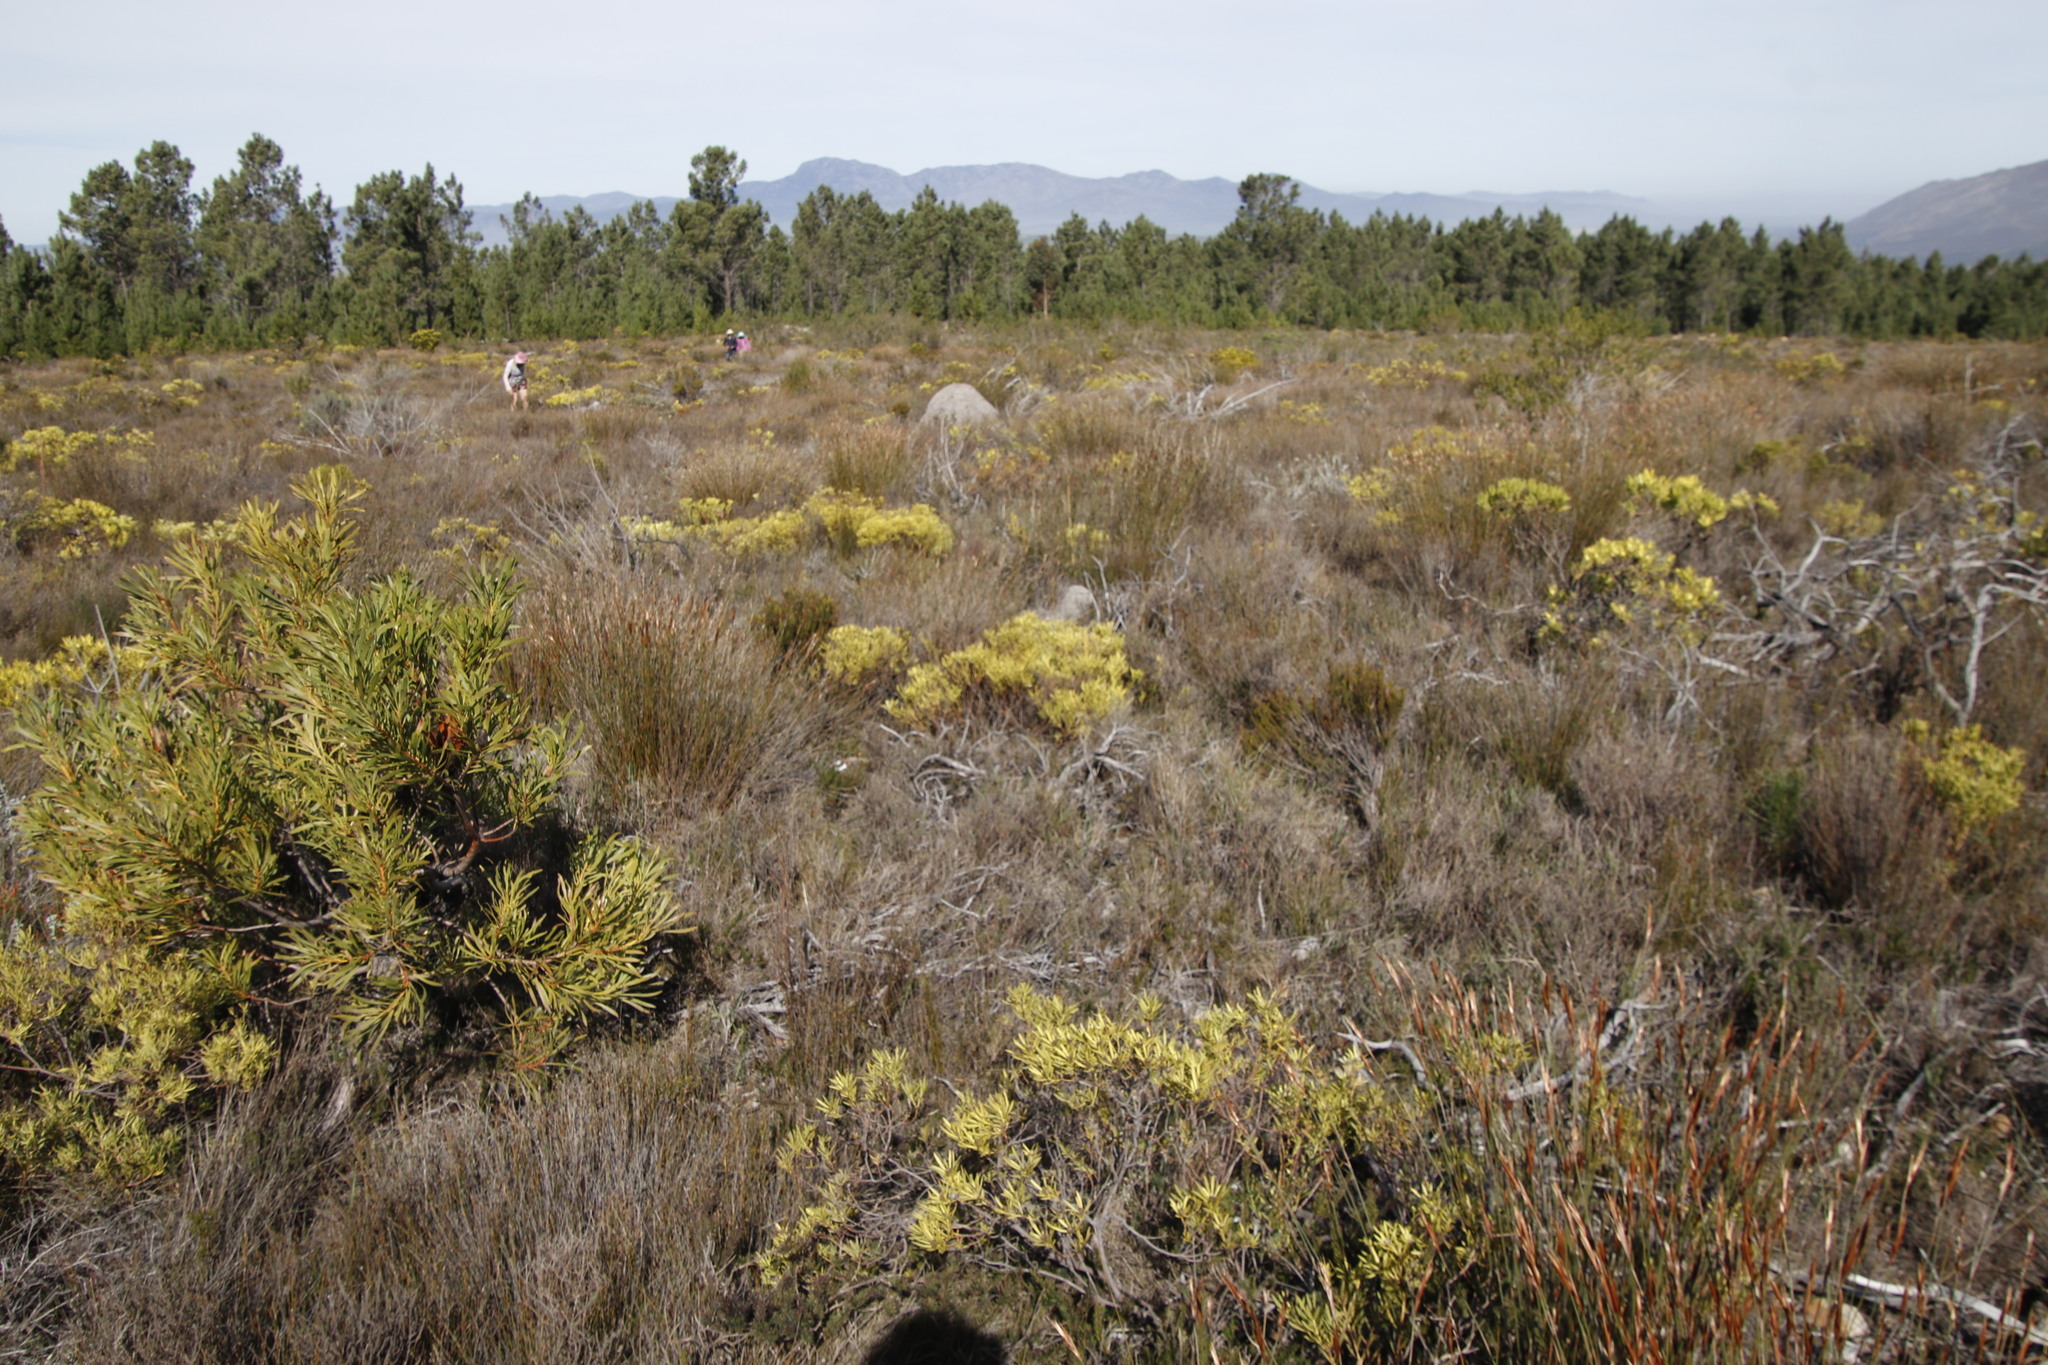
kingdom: Plantae
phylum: Tracheophyta
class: Magnoliopsida
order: Proteales
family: Proteaceae
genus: Leucadendron
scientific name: Leucadendron salignum
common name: Common sunshine conebush
